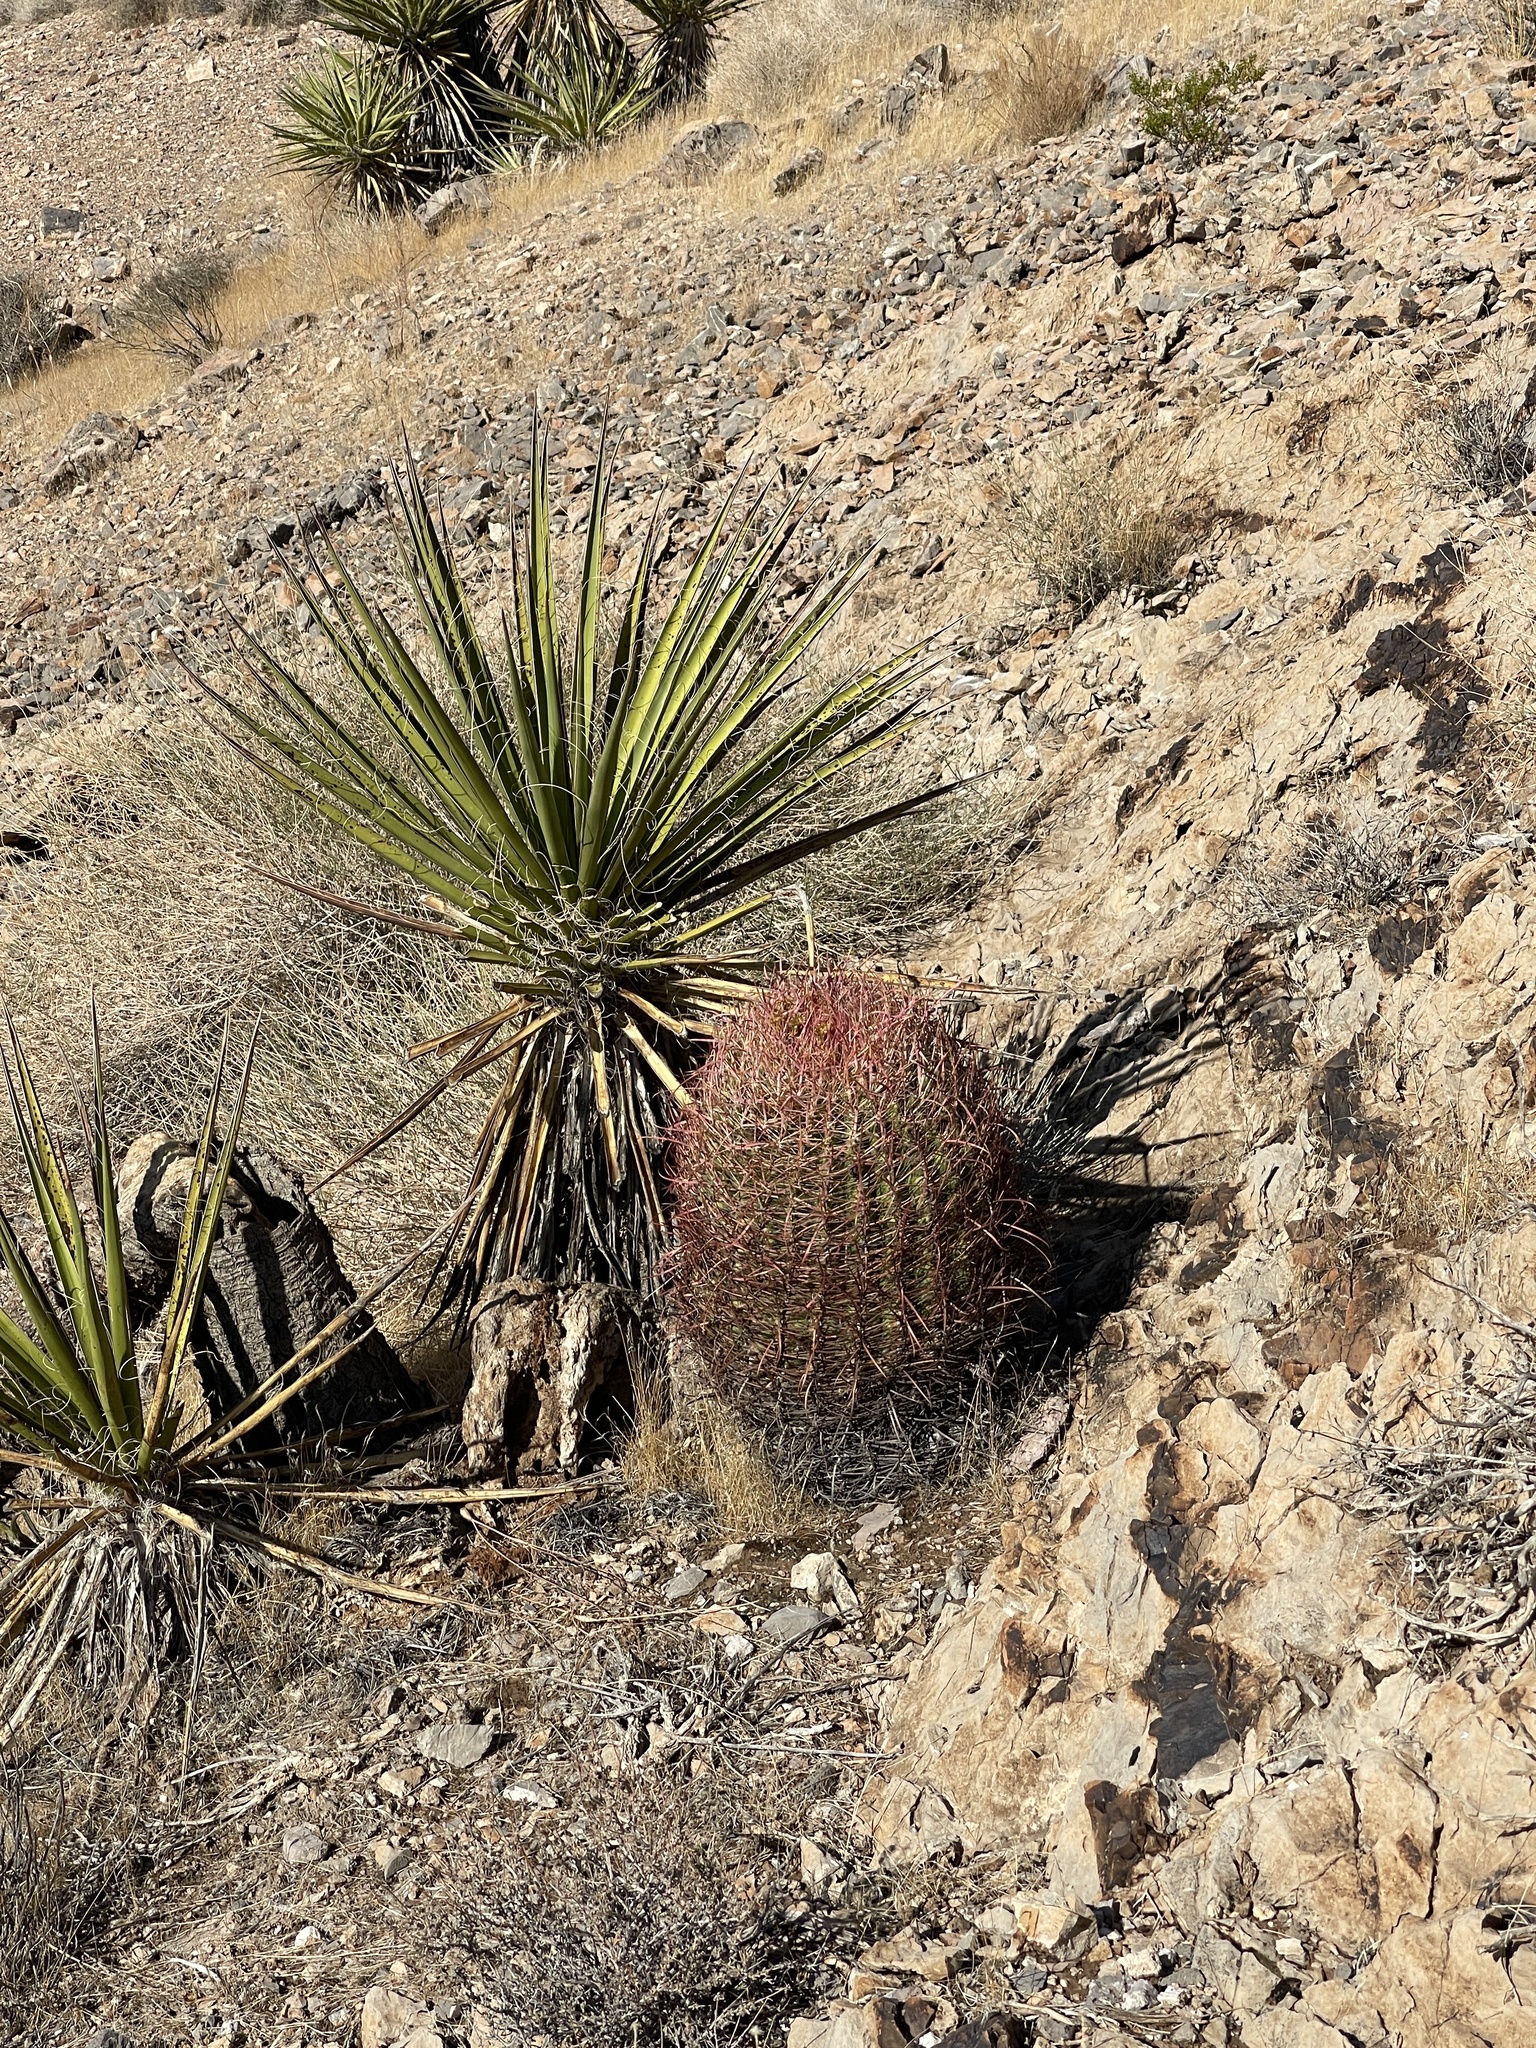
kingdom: Plantae
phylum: Tracheophyta
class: Magnoliopsida
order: Caryophyllales
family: Cactaceae
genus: Ferocactus
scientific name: Ferocactus cylindraceus
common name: California barrel cactus
